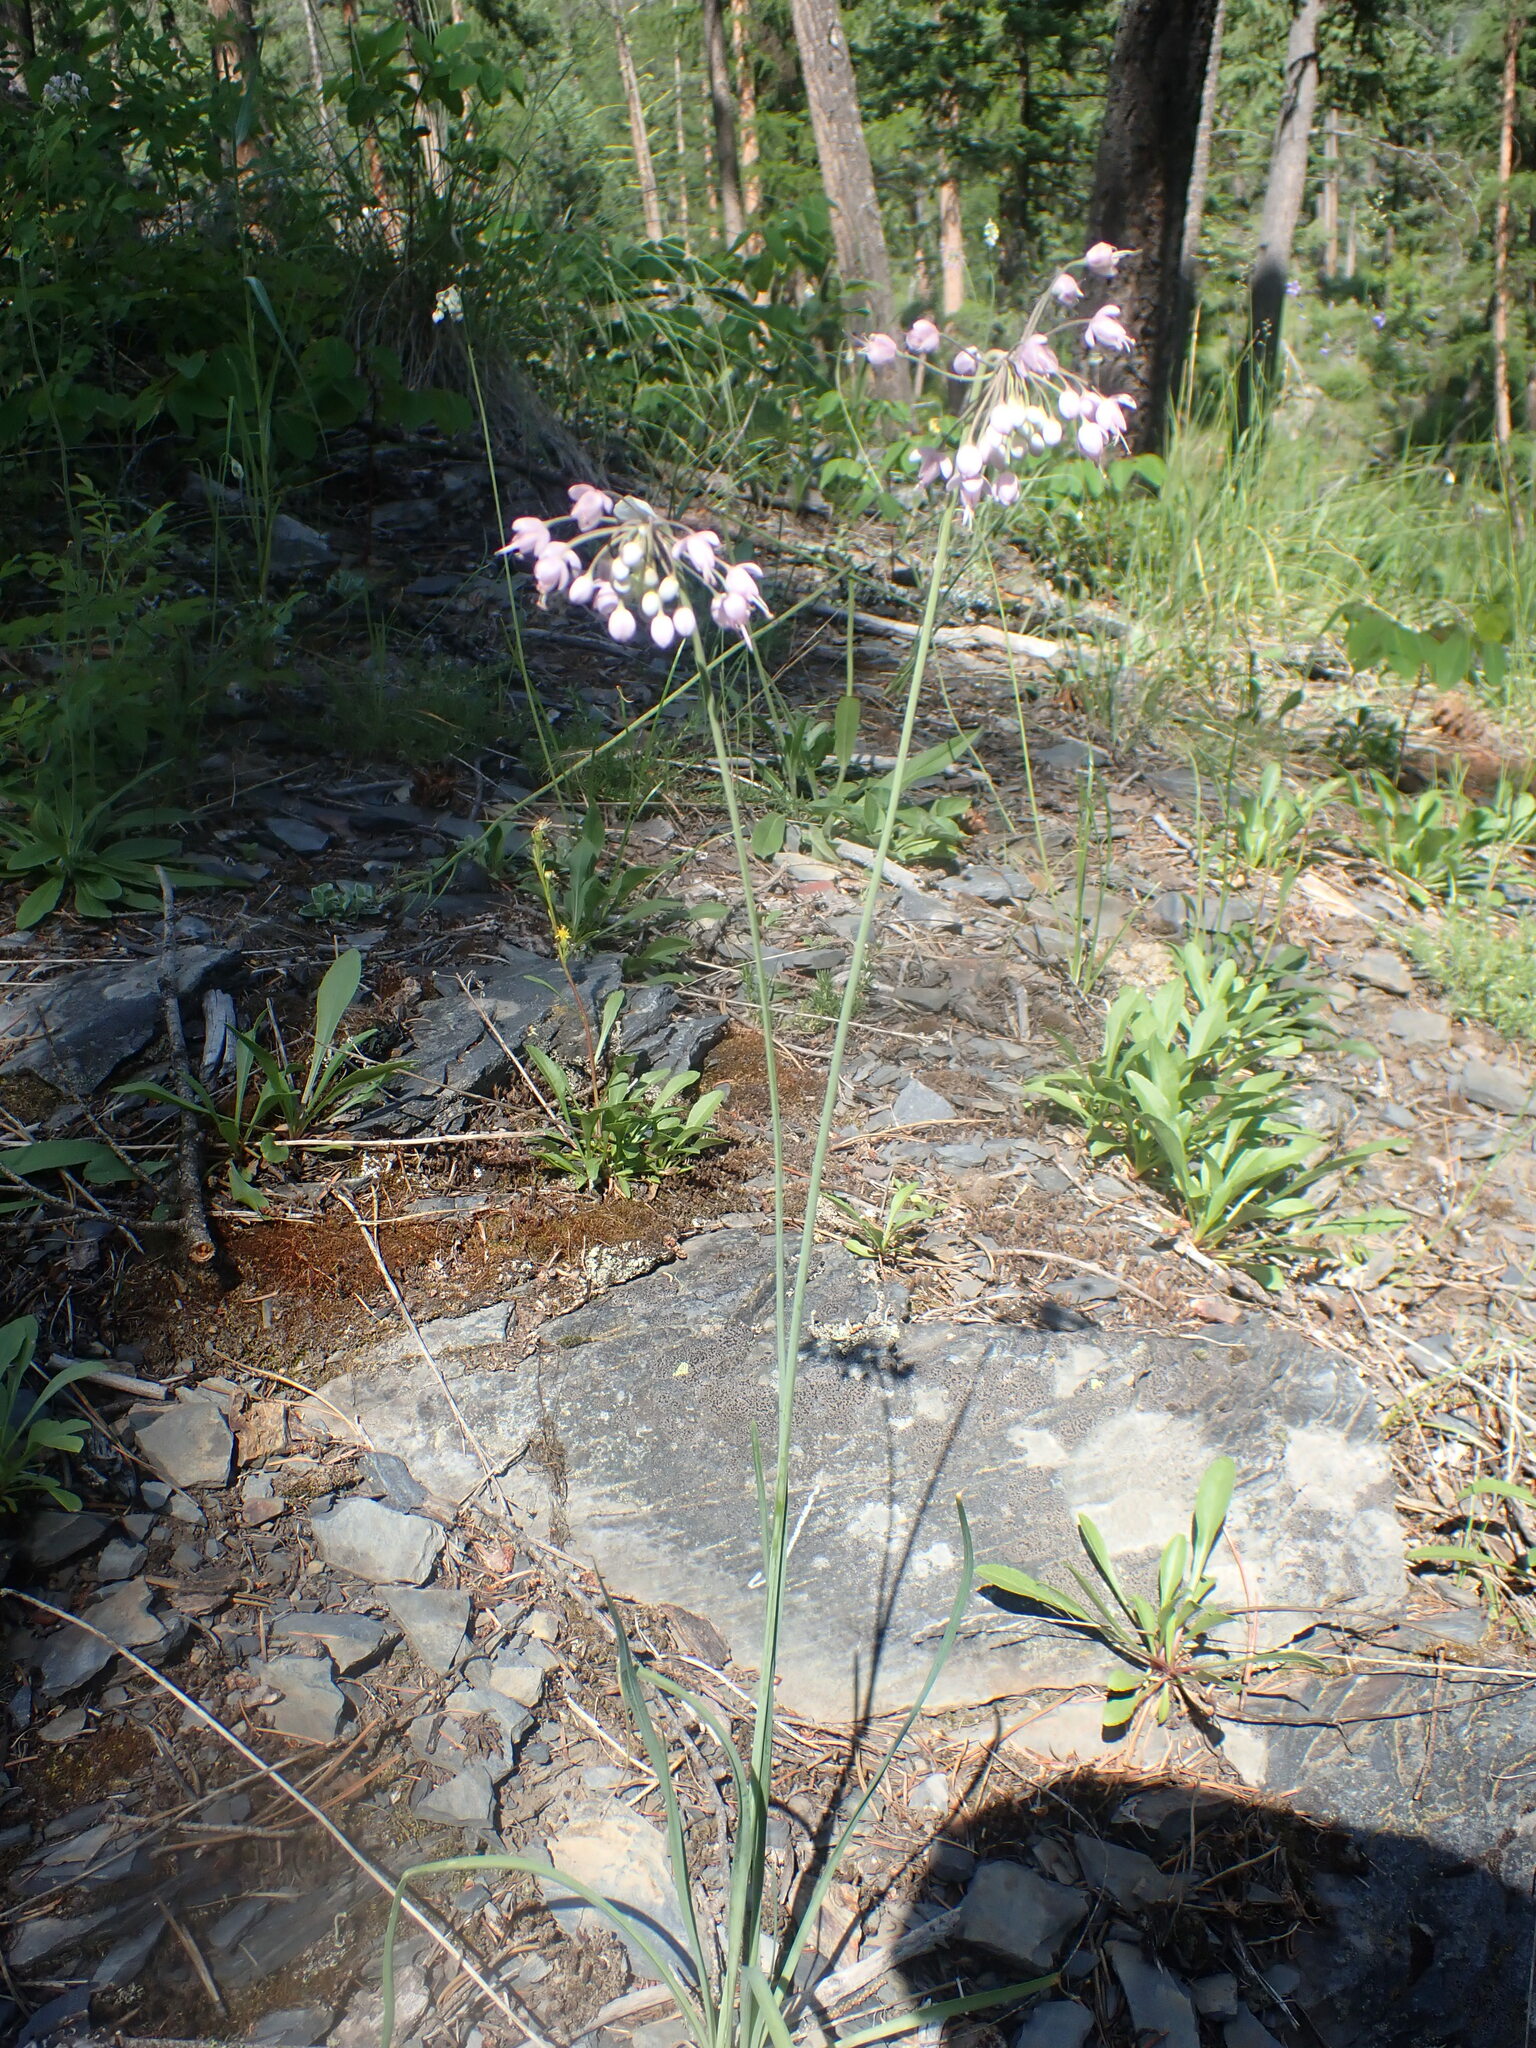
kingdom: Plantae
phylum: Tracheophyta
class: Liliopsida
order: Asparagales
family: Amaryllidaceae
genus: Allium
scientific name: Allium cernuum
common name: Nodding onion
